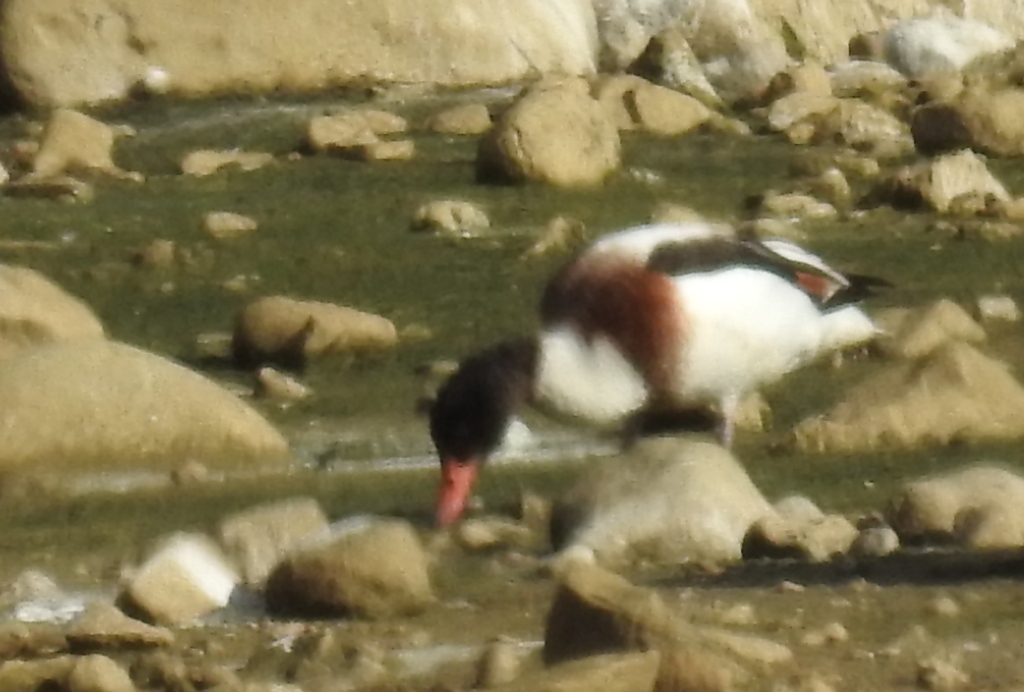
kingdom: Animalia
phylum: Chordata
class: Aves
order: Anseriformes
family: Anatidae
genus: Tadorna
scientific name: Tadorna tadorna
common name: Common shelduck
